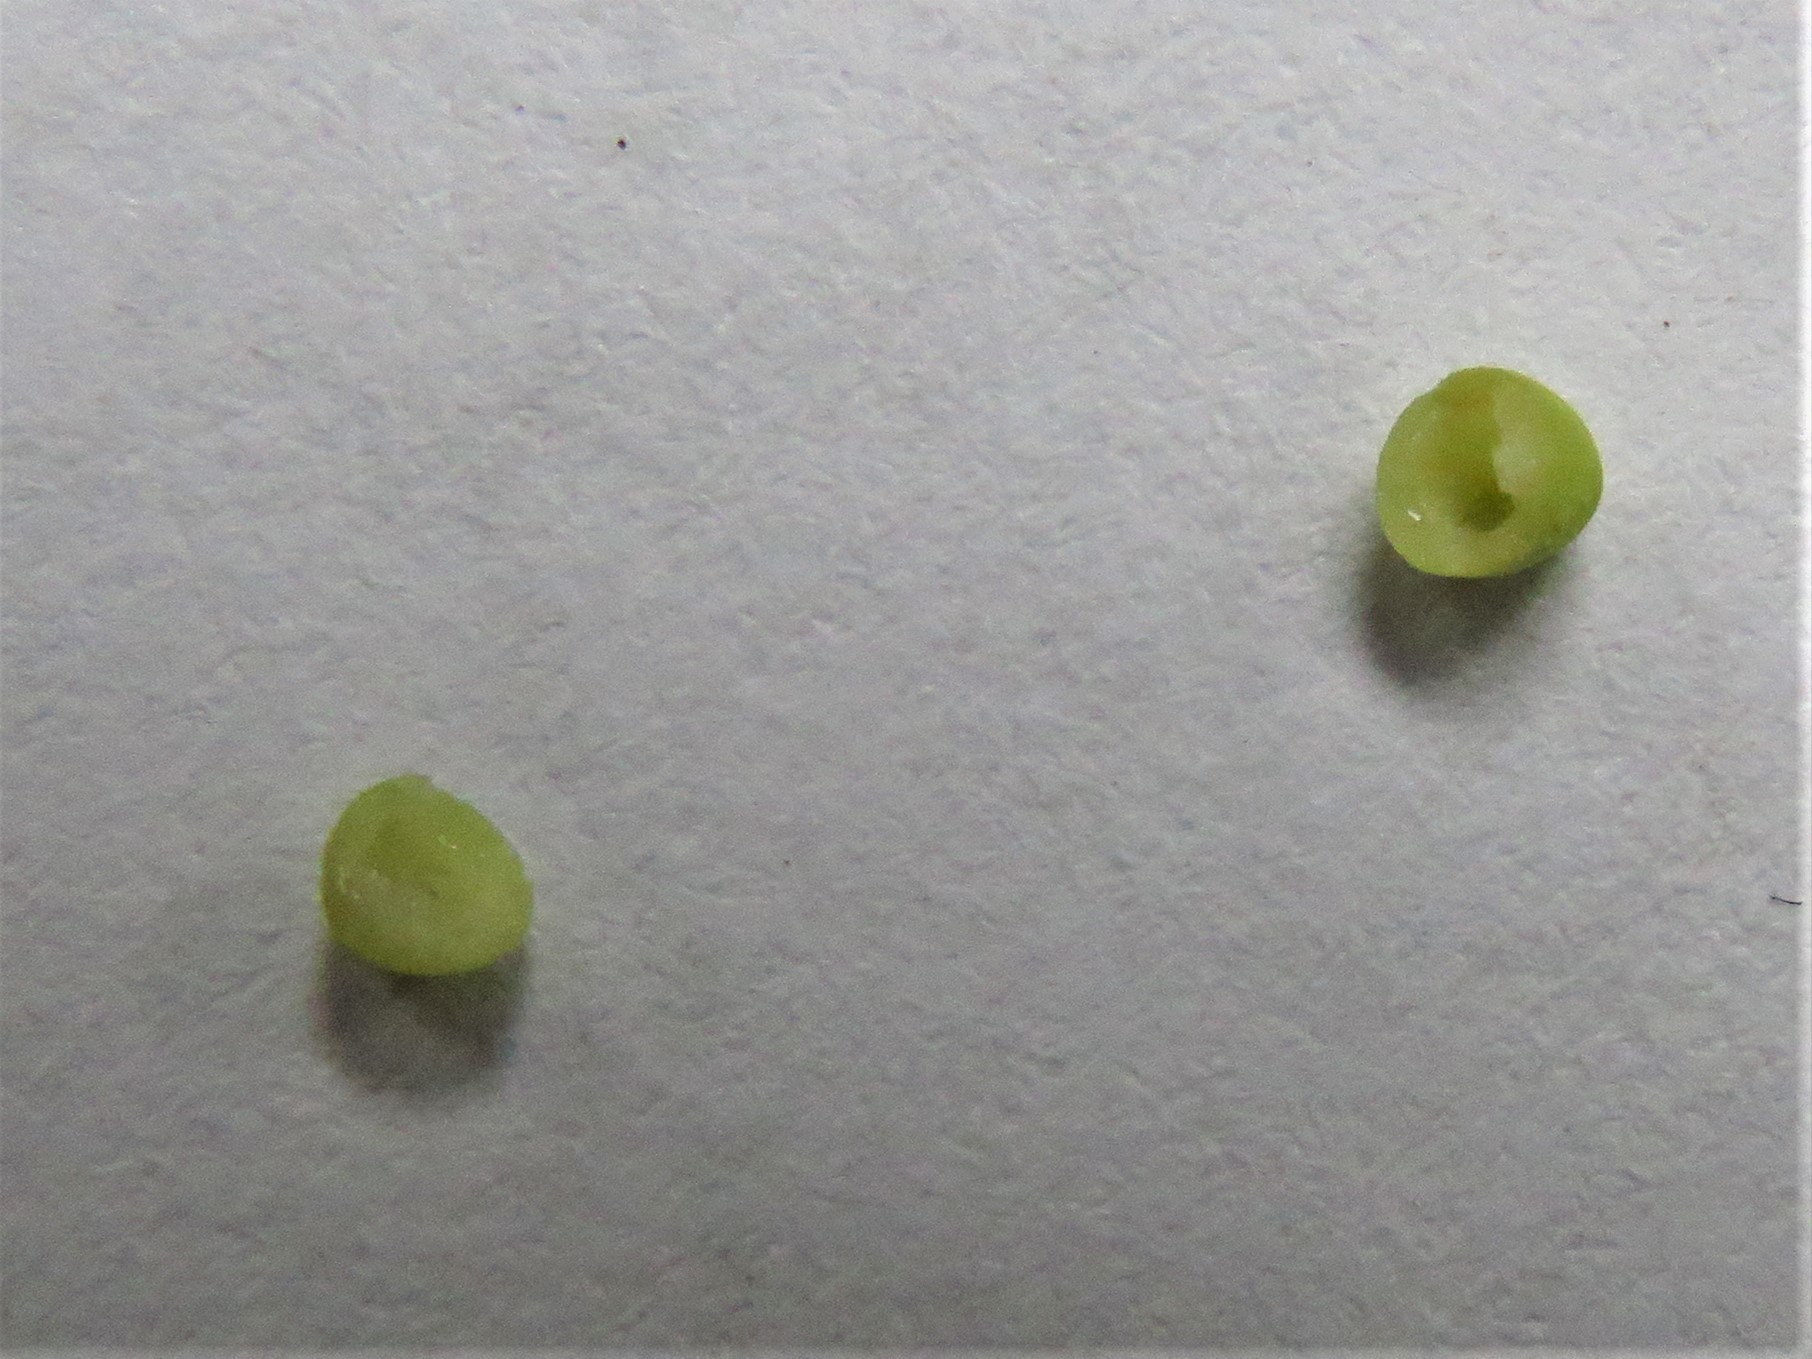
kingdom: Animalia
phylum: Arthropoda
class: Insecta
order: Hymenoptera
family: Cynipidae
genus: Dryocosmus
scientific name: Dryocosmus quercuspalustris
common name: Succulent oak gall wasp
